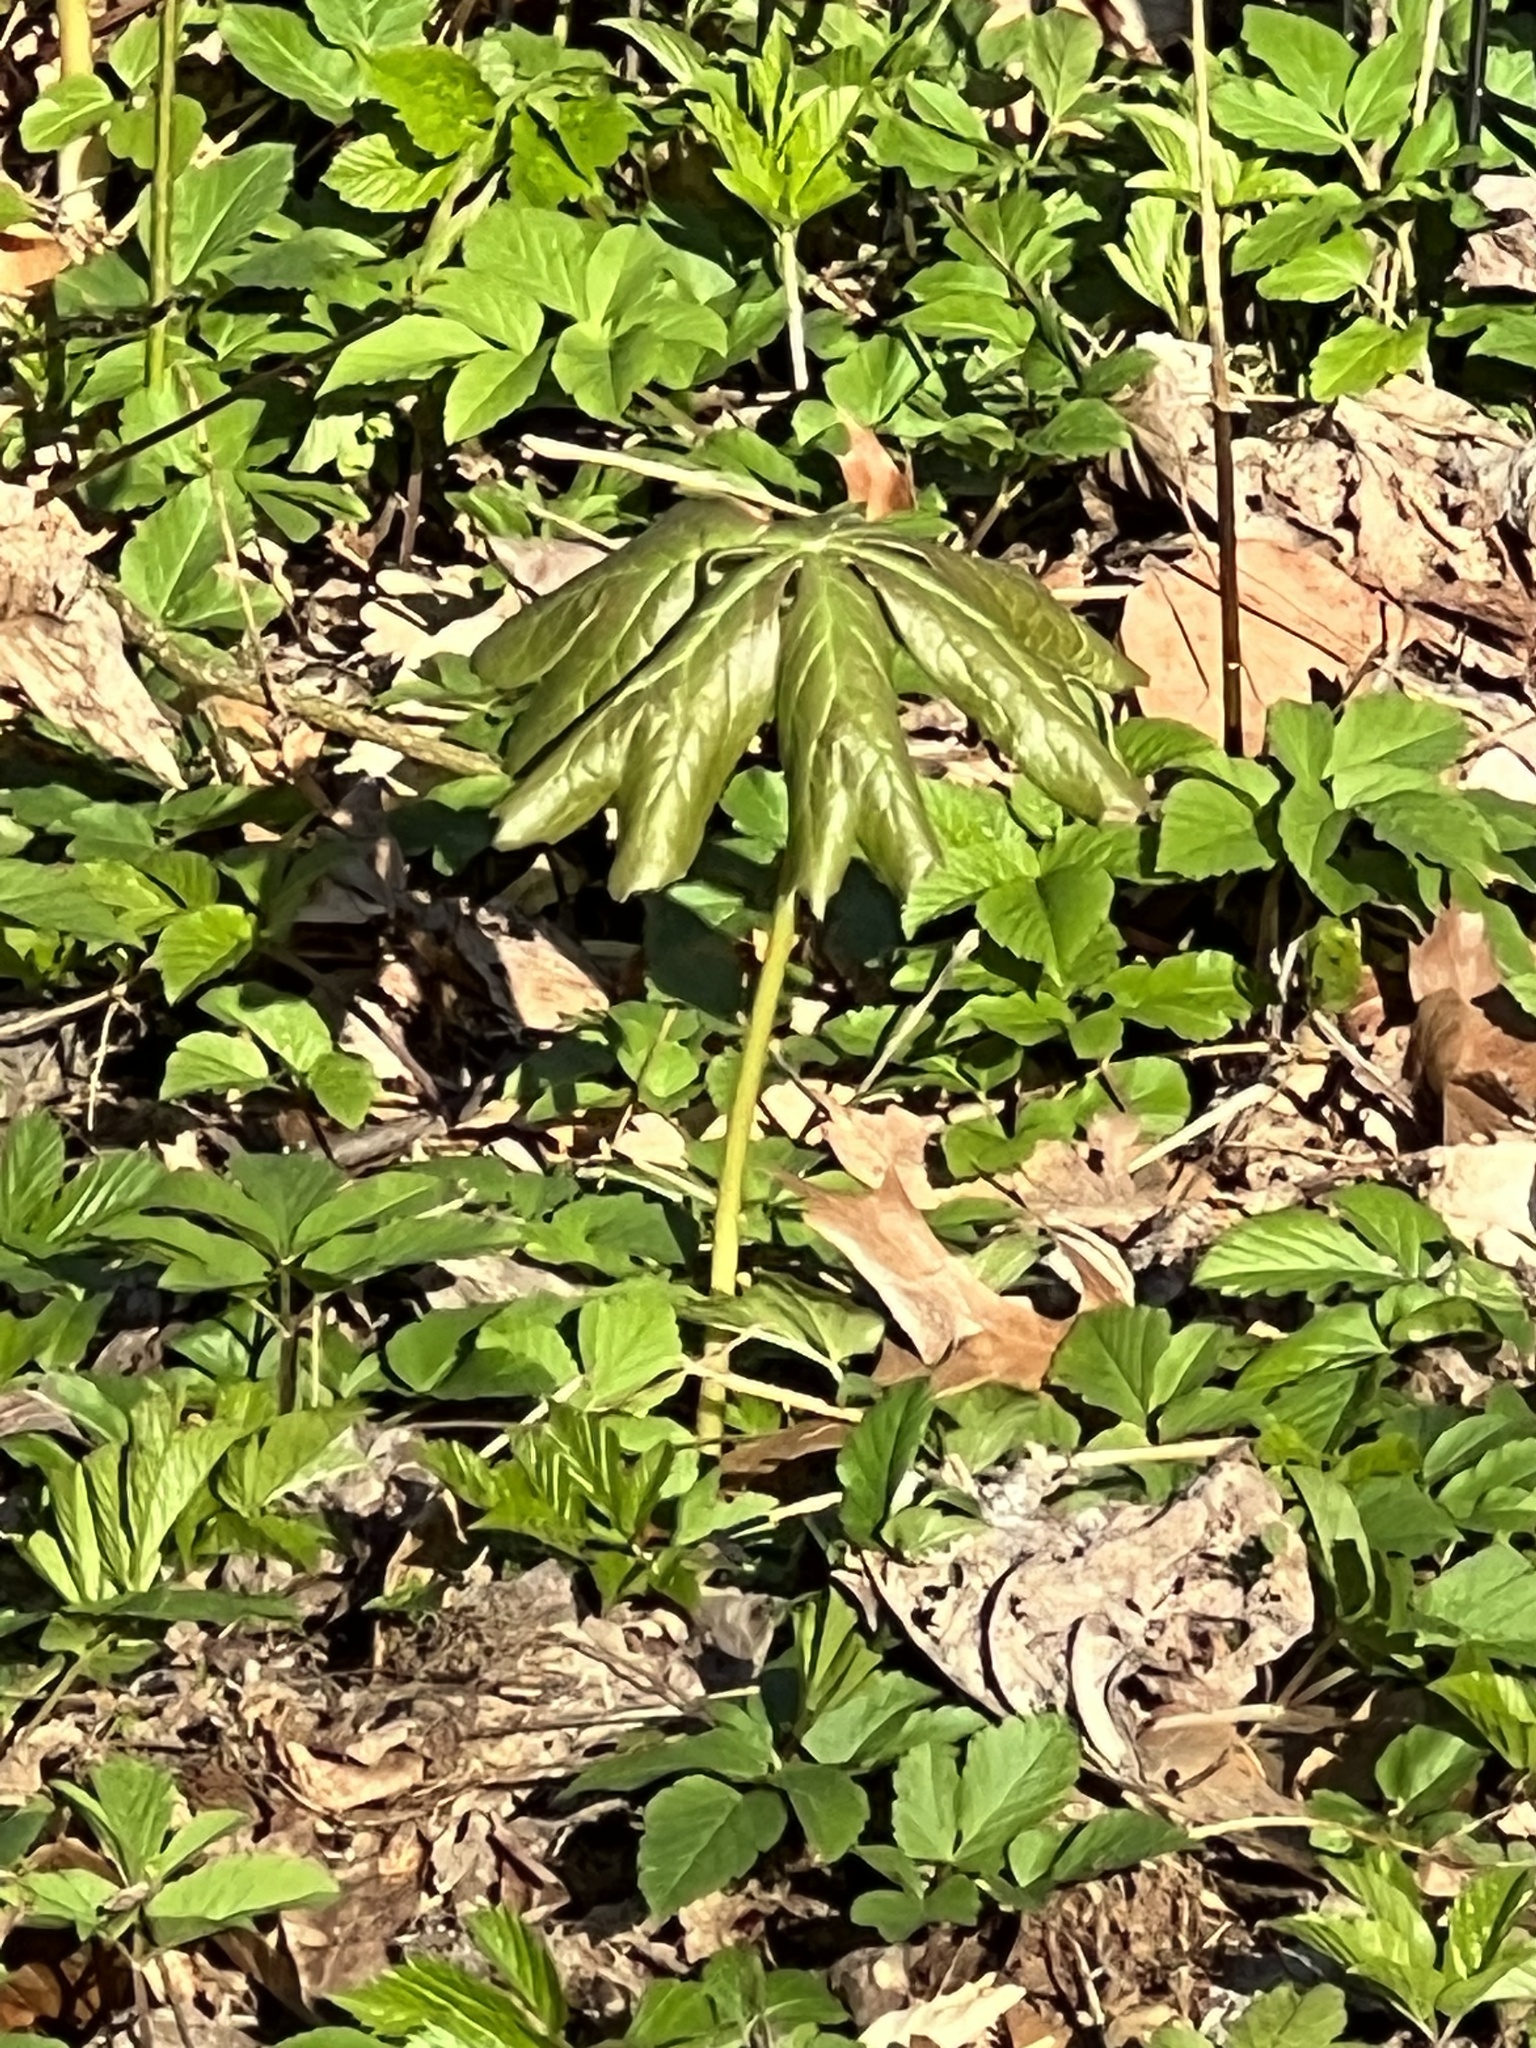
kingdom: Plantae
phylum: Tracheophyta
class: Magnoliopsida
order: Ranunculales
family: Berberidaceae
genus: Podophyllum
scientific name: Podophyllum peltatum
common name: Wild mandrake
